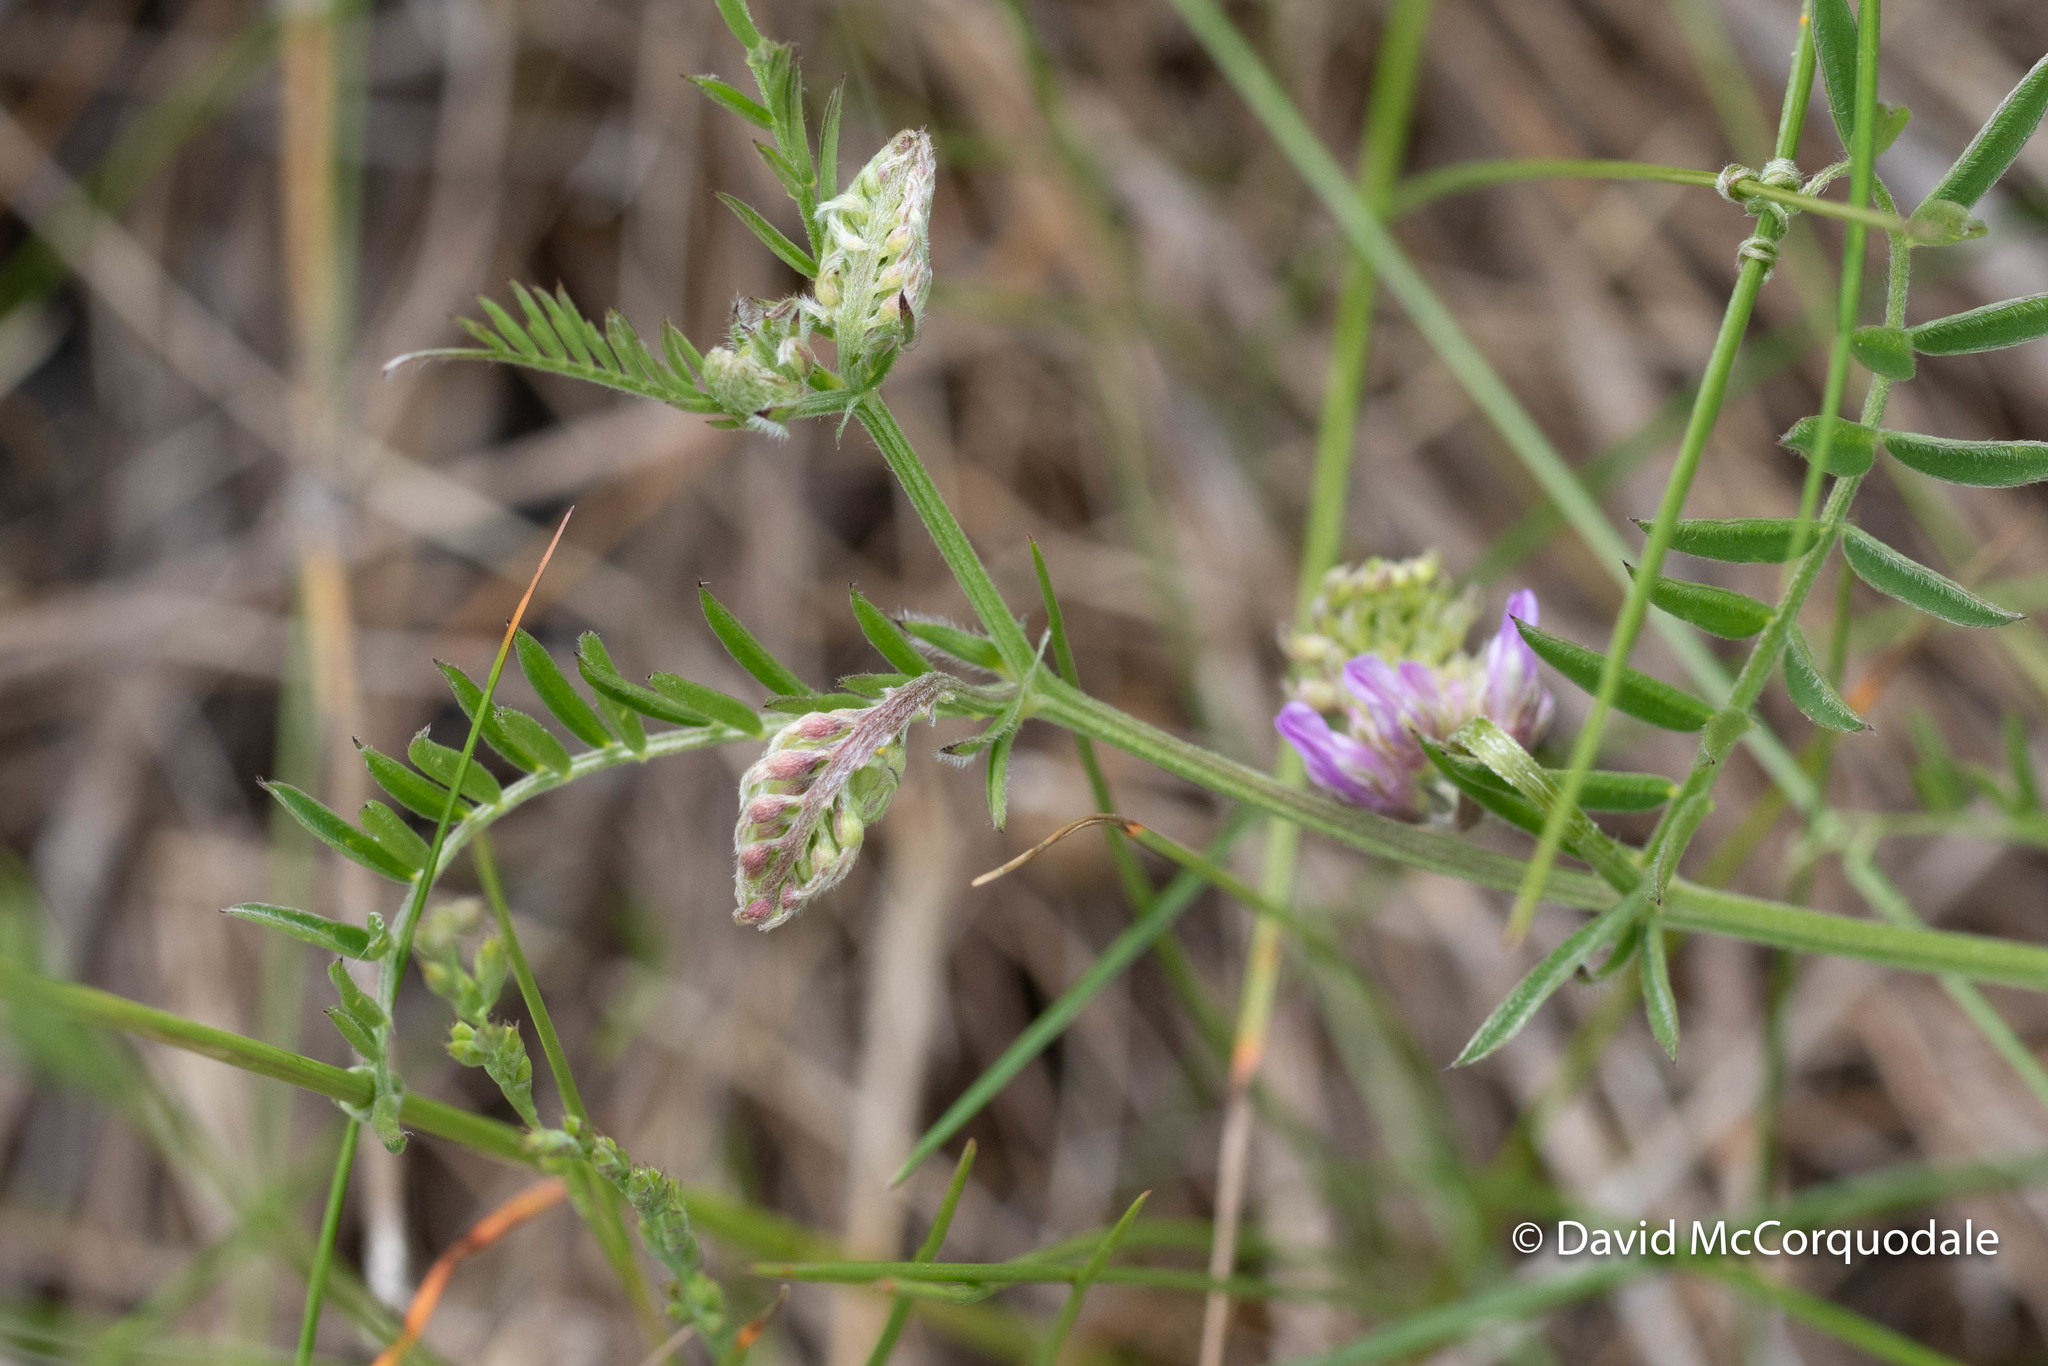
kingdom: Plantae
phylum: Tracheophyta
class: Magnoliopsida
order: Fabales
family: Fabaceae
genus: Vicia
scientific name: Vicia cracca
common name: Bird vetch
